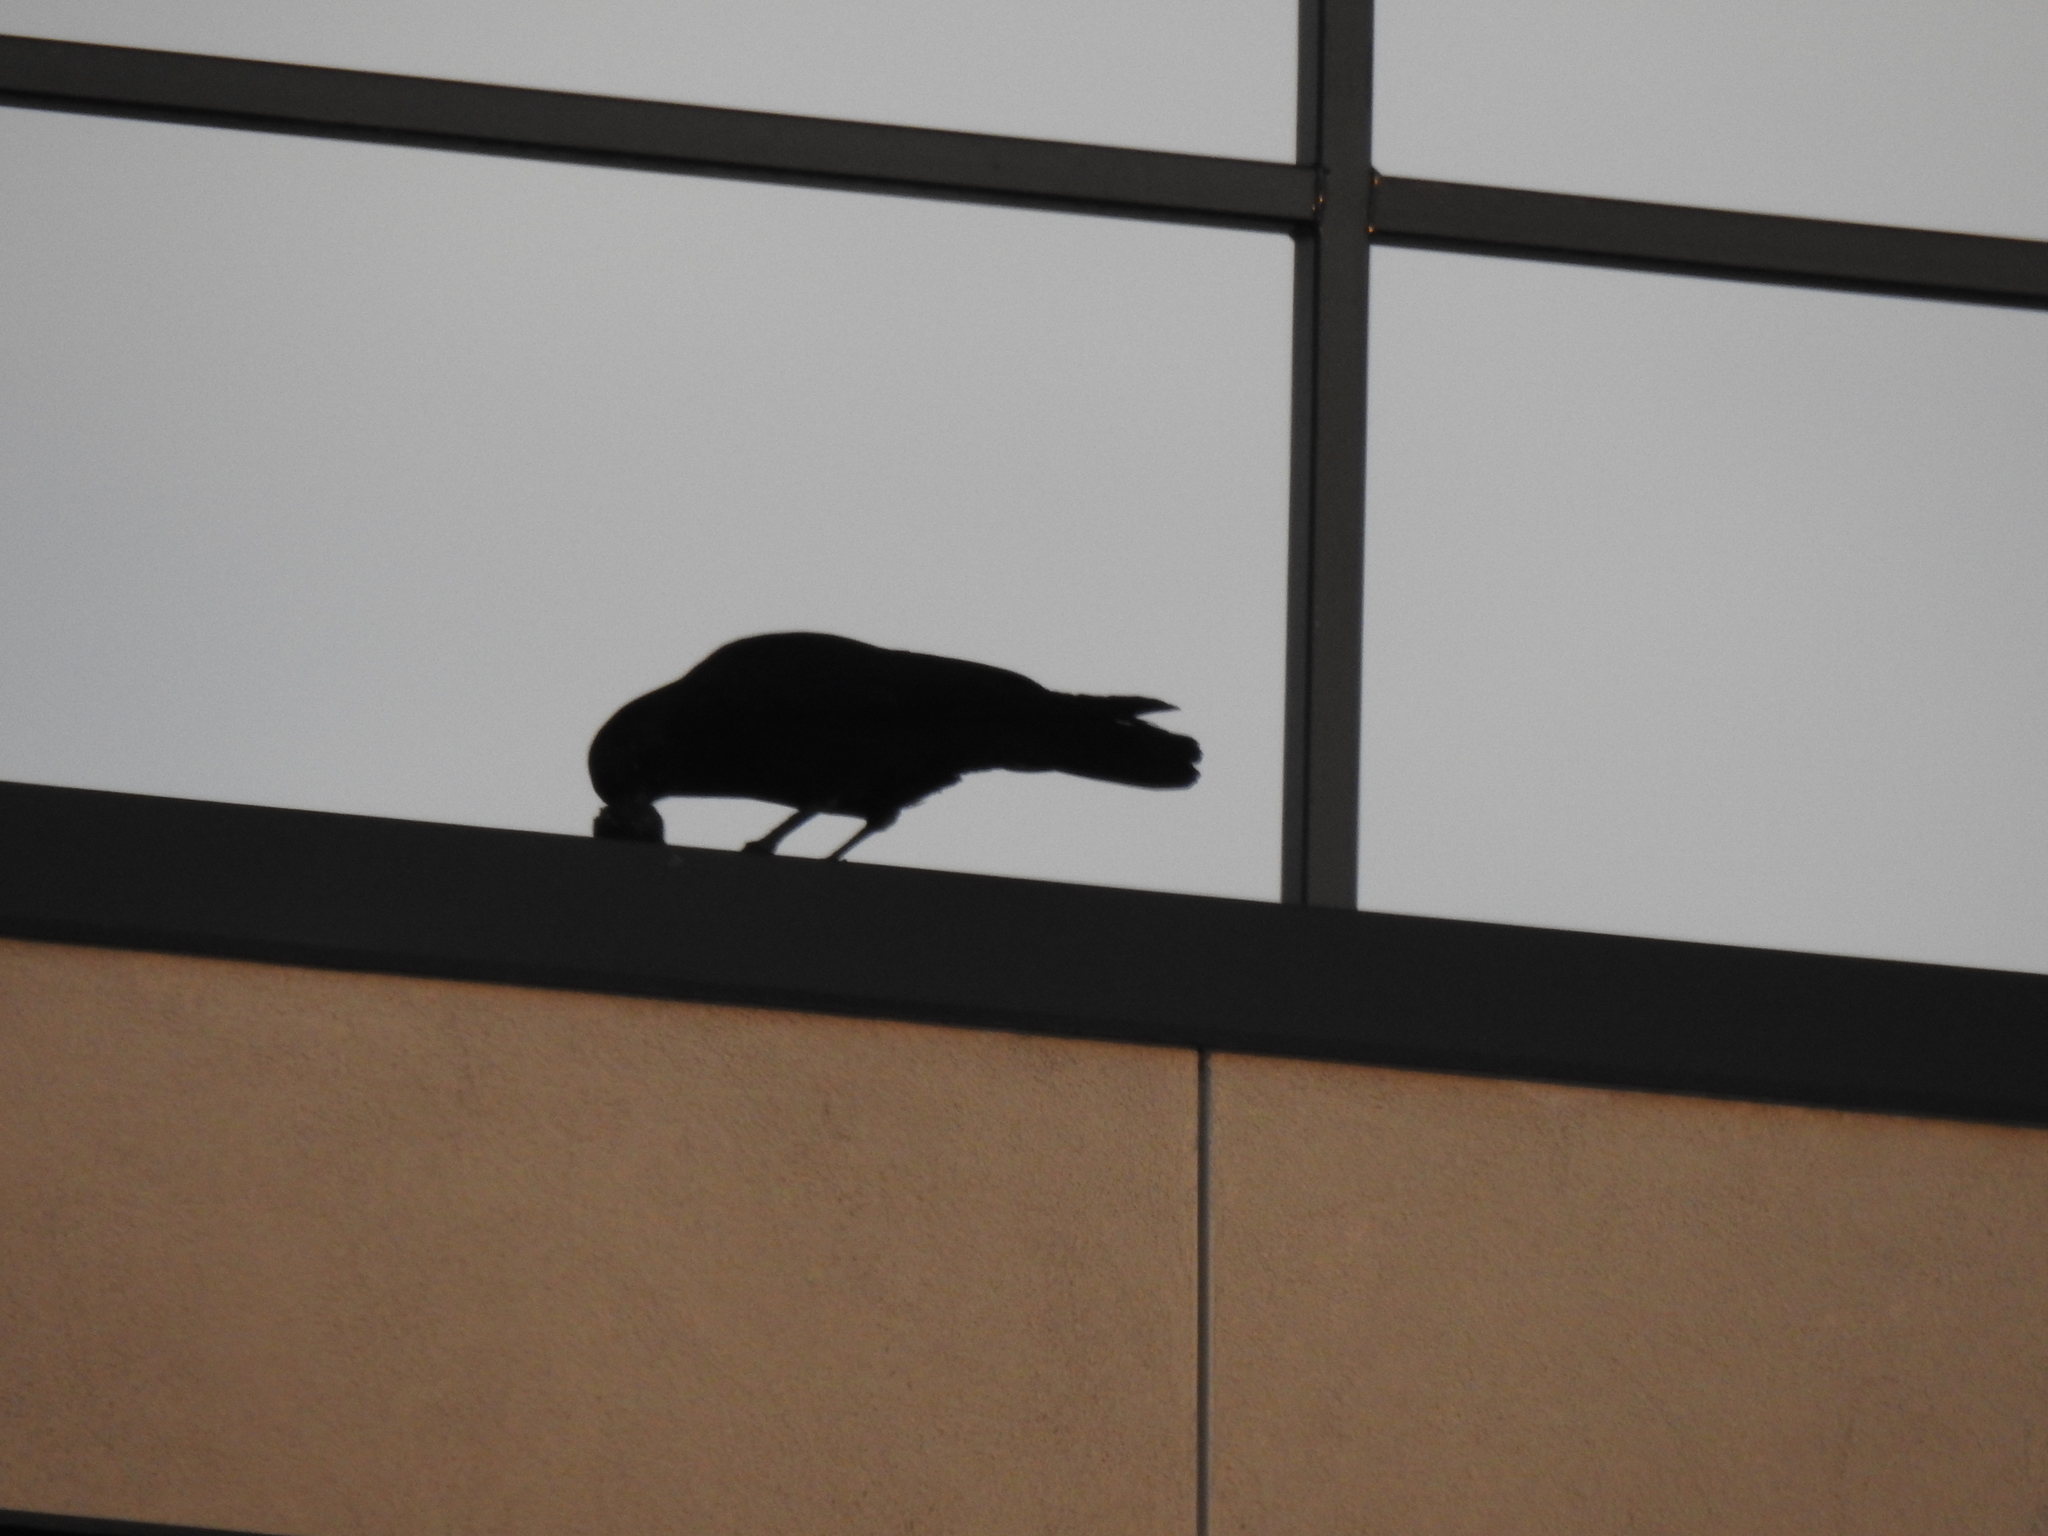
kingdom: Animalia
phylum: Chordata
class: Aves
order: Passeriformes
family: Corvidae
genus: Corvus
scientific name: Corvus brachyrhynchos
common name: American crow
